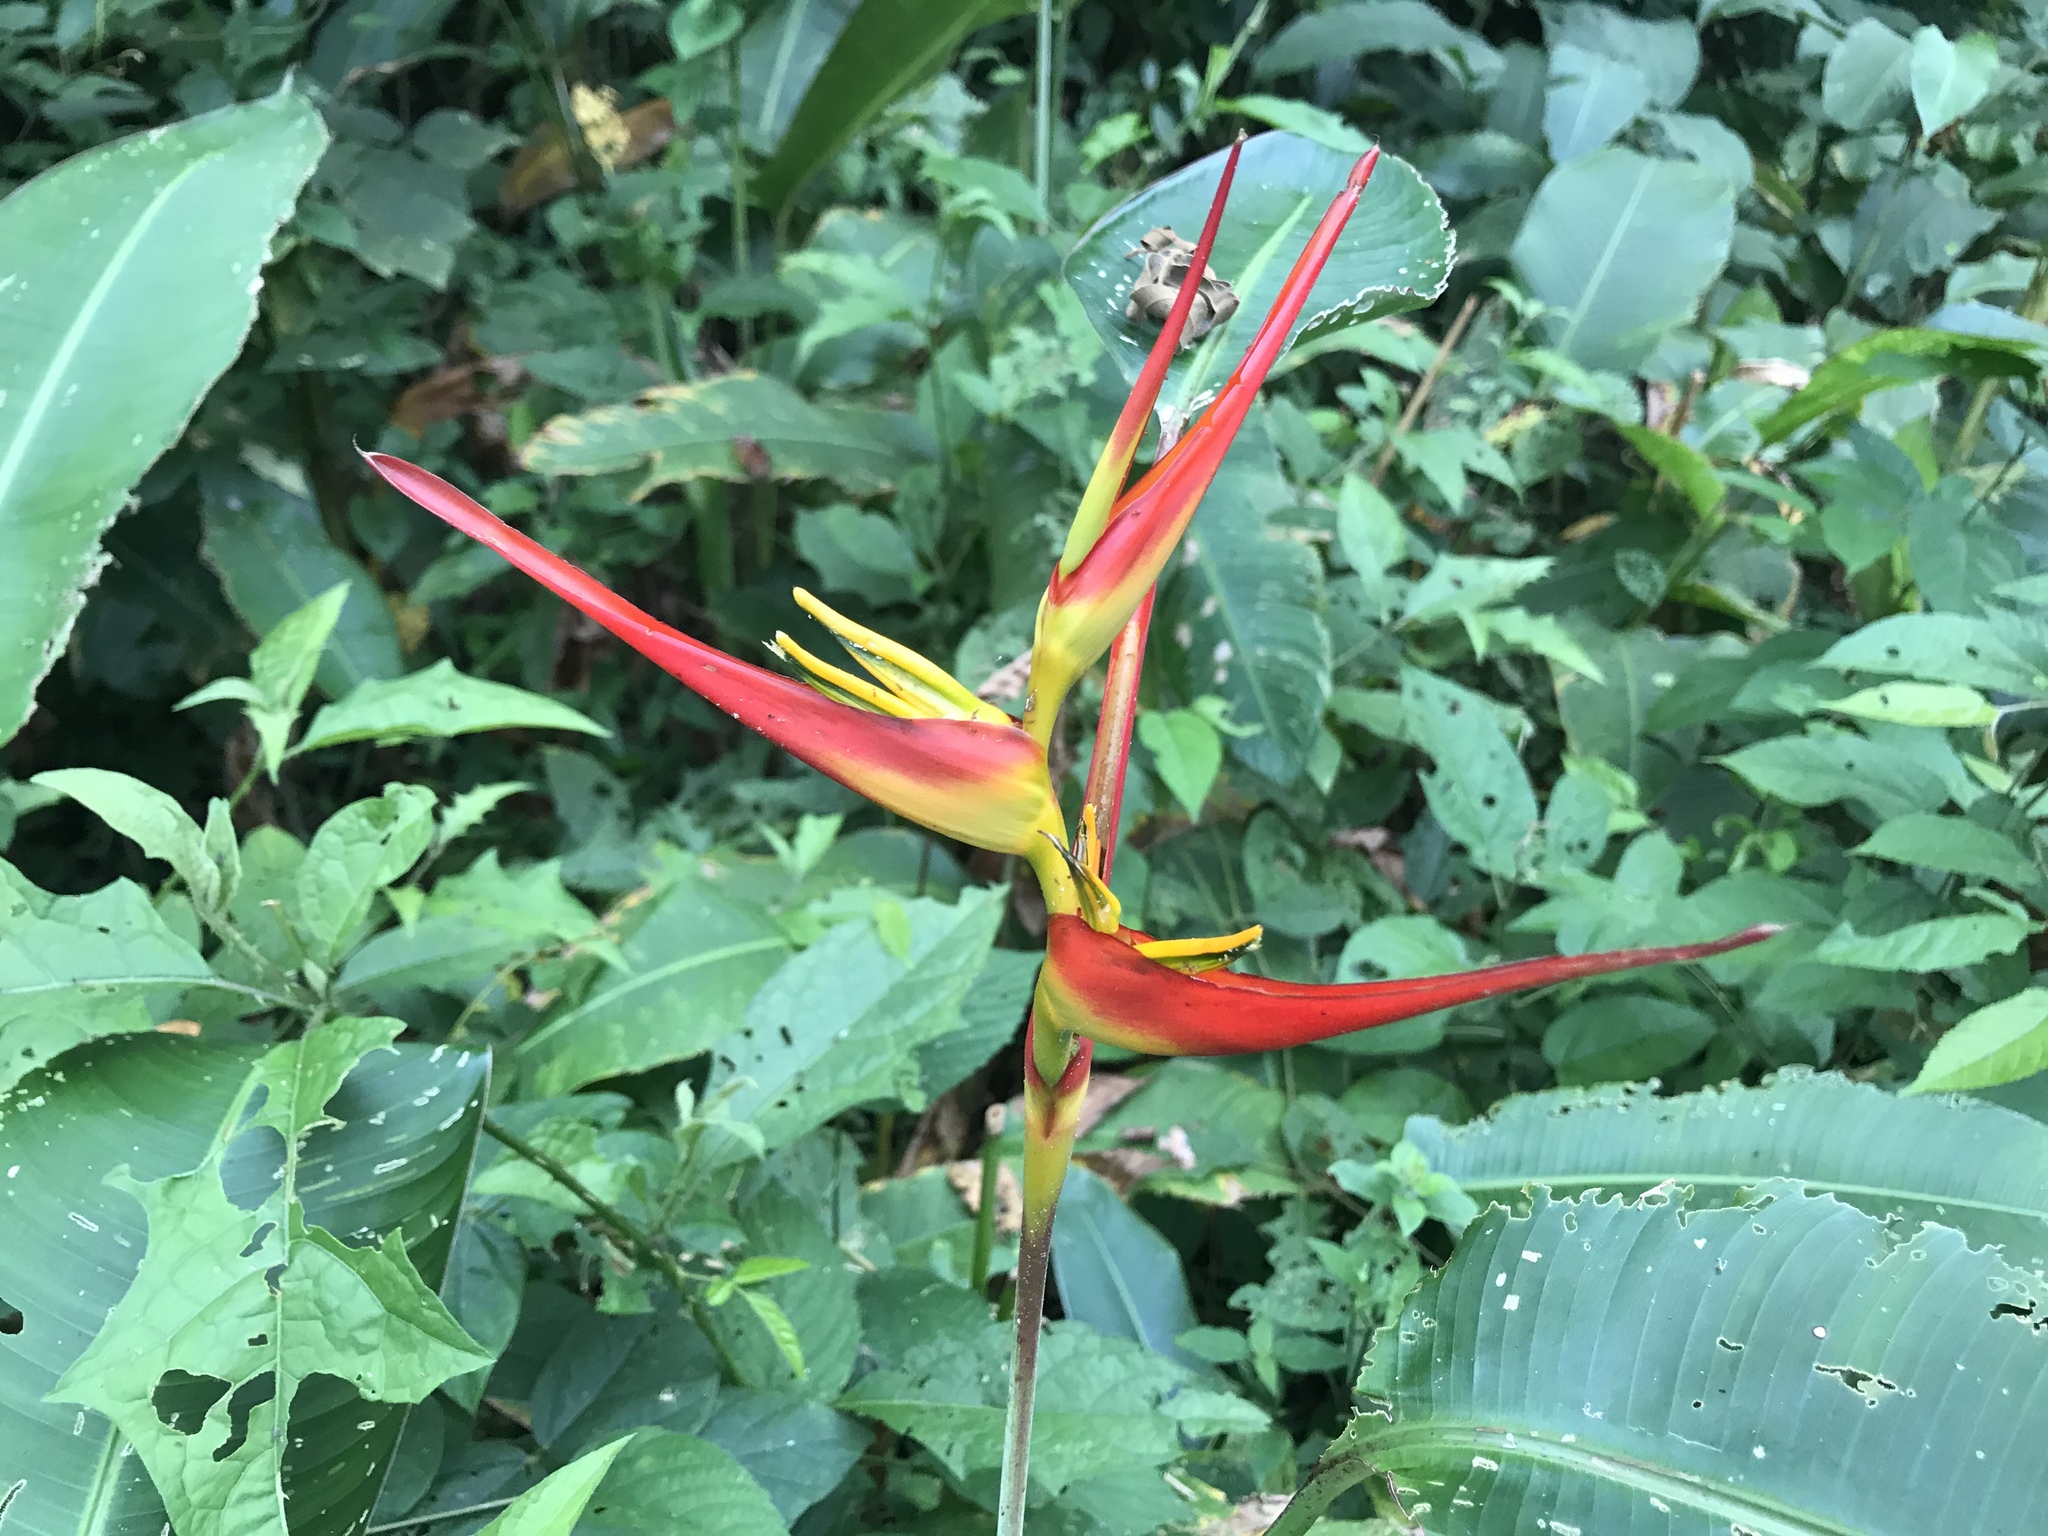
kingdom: Plantae
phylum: Tracheophyta
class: Liliopsida
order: Zingiberales
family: Heliconiaceae
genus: Heliconia
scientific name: Heliconia latispatha
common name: Expanded lobsterclaw
